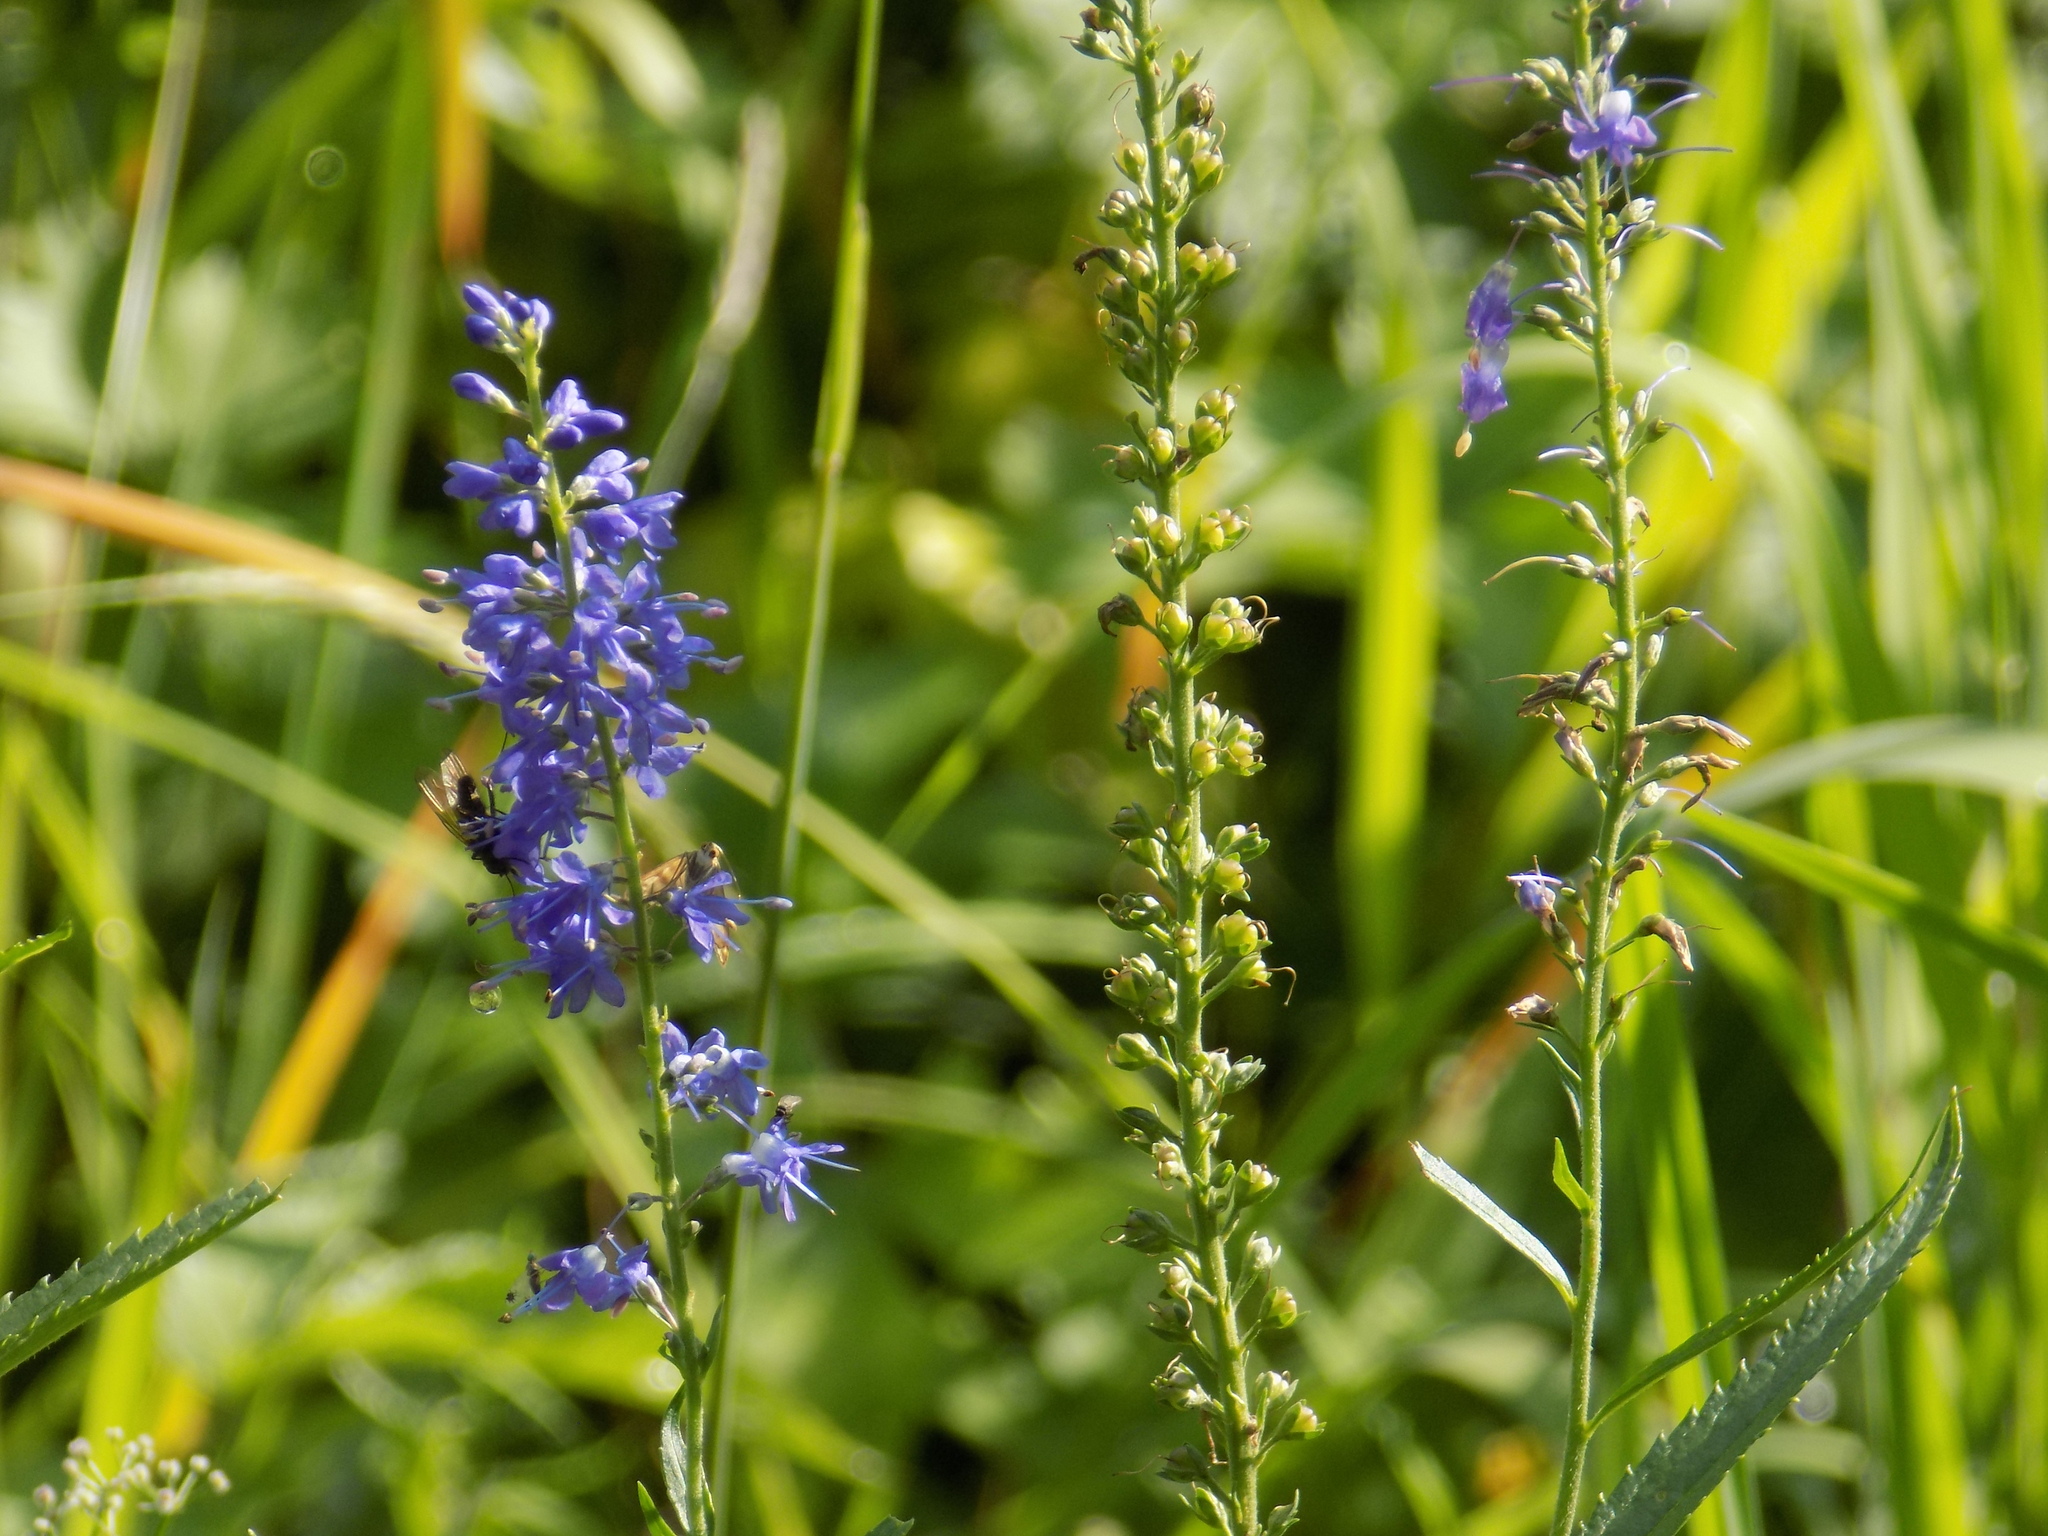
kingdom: Plantae
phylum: Tracheophyta
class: Magnoliopsida
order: Lamiales
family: Plantaginaceae
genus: Veronica
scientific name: Veronica longifolia
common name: Garden speedwell
